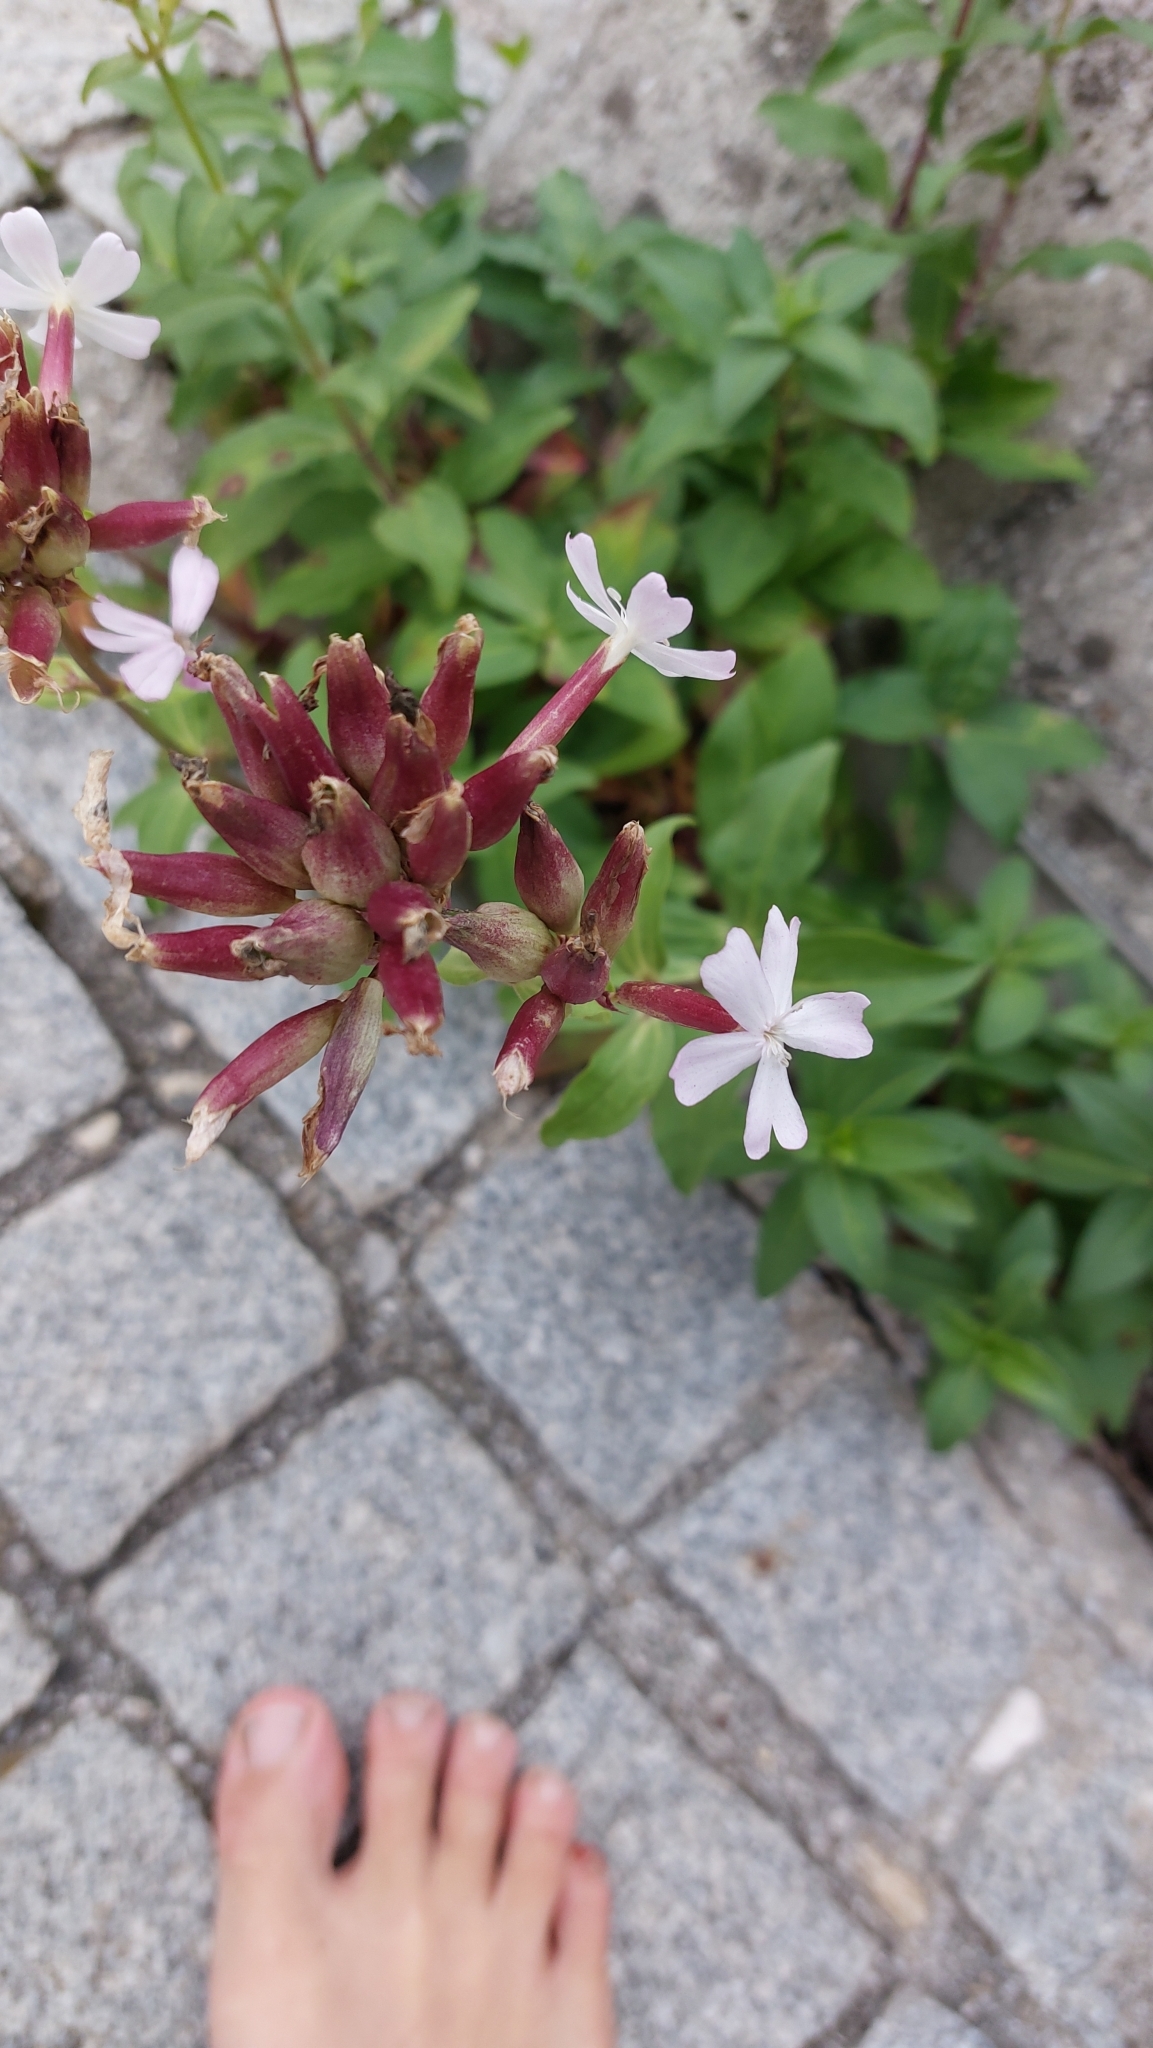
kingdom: Plantae
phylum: Tracheophyta
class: Magnoliopsida
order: Caryophyllales
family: Caryophyllaceae
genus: Saponaria
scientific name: Saponaria officinalis
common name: Soapwort
